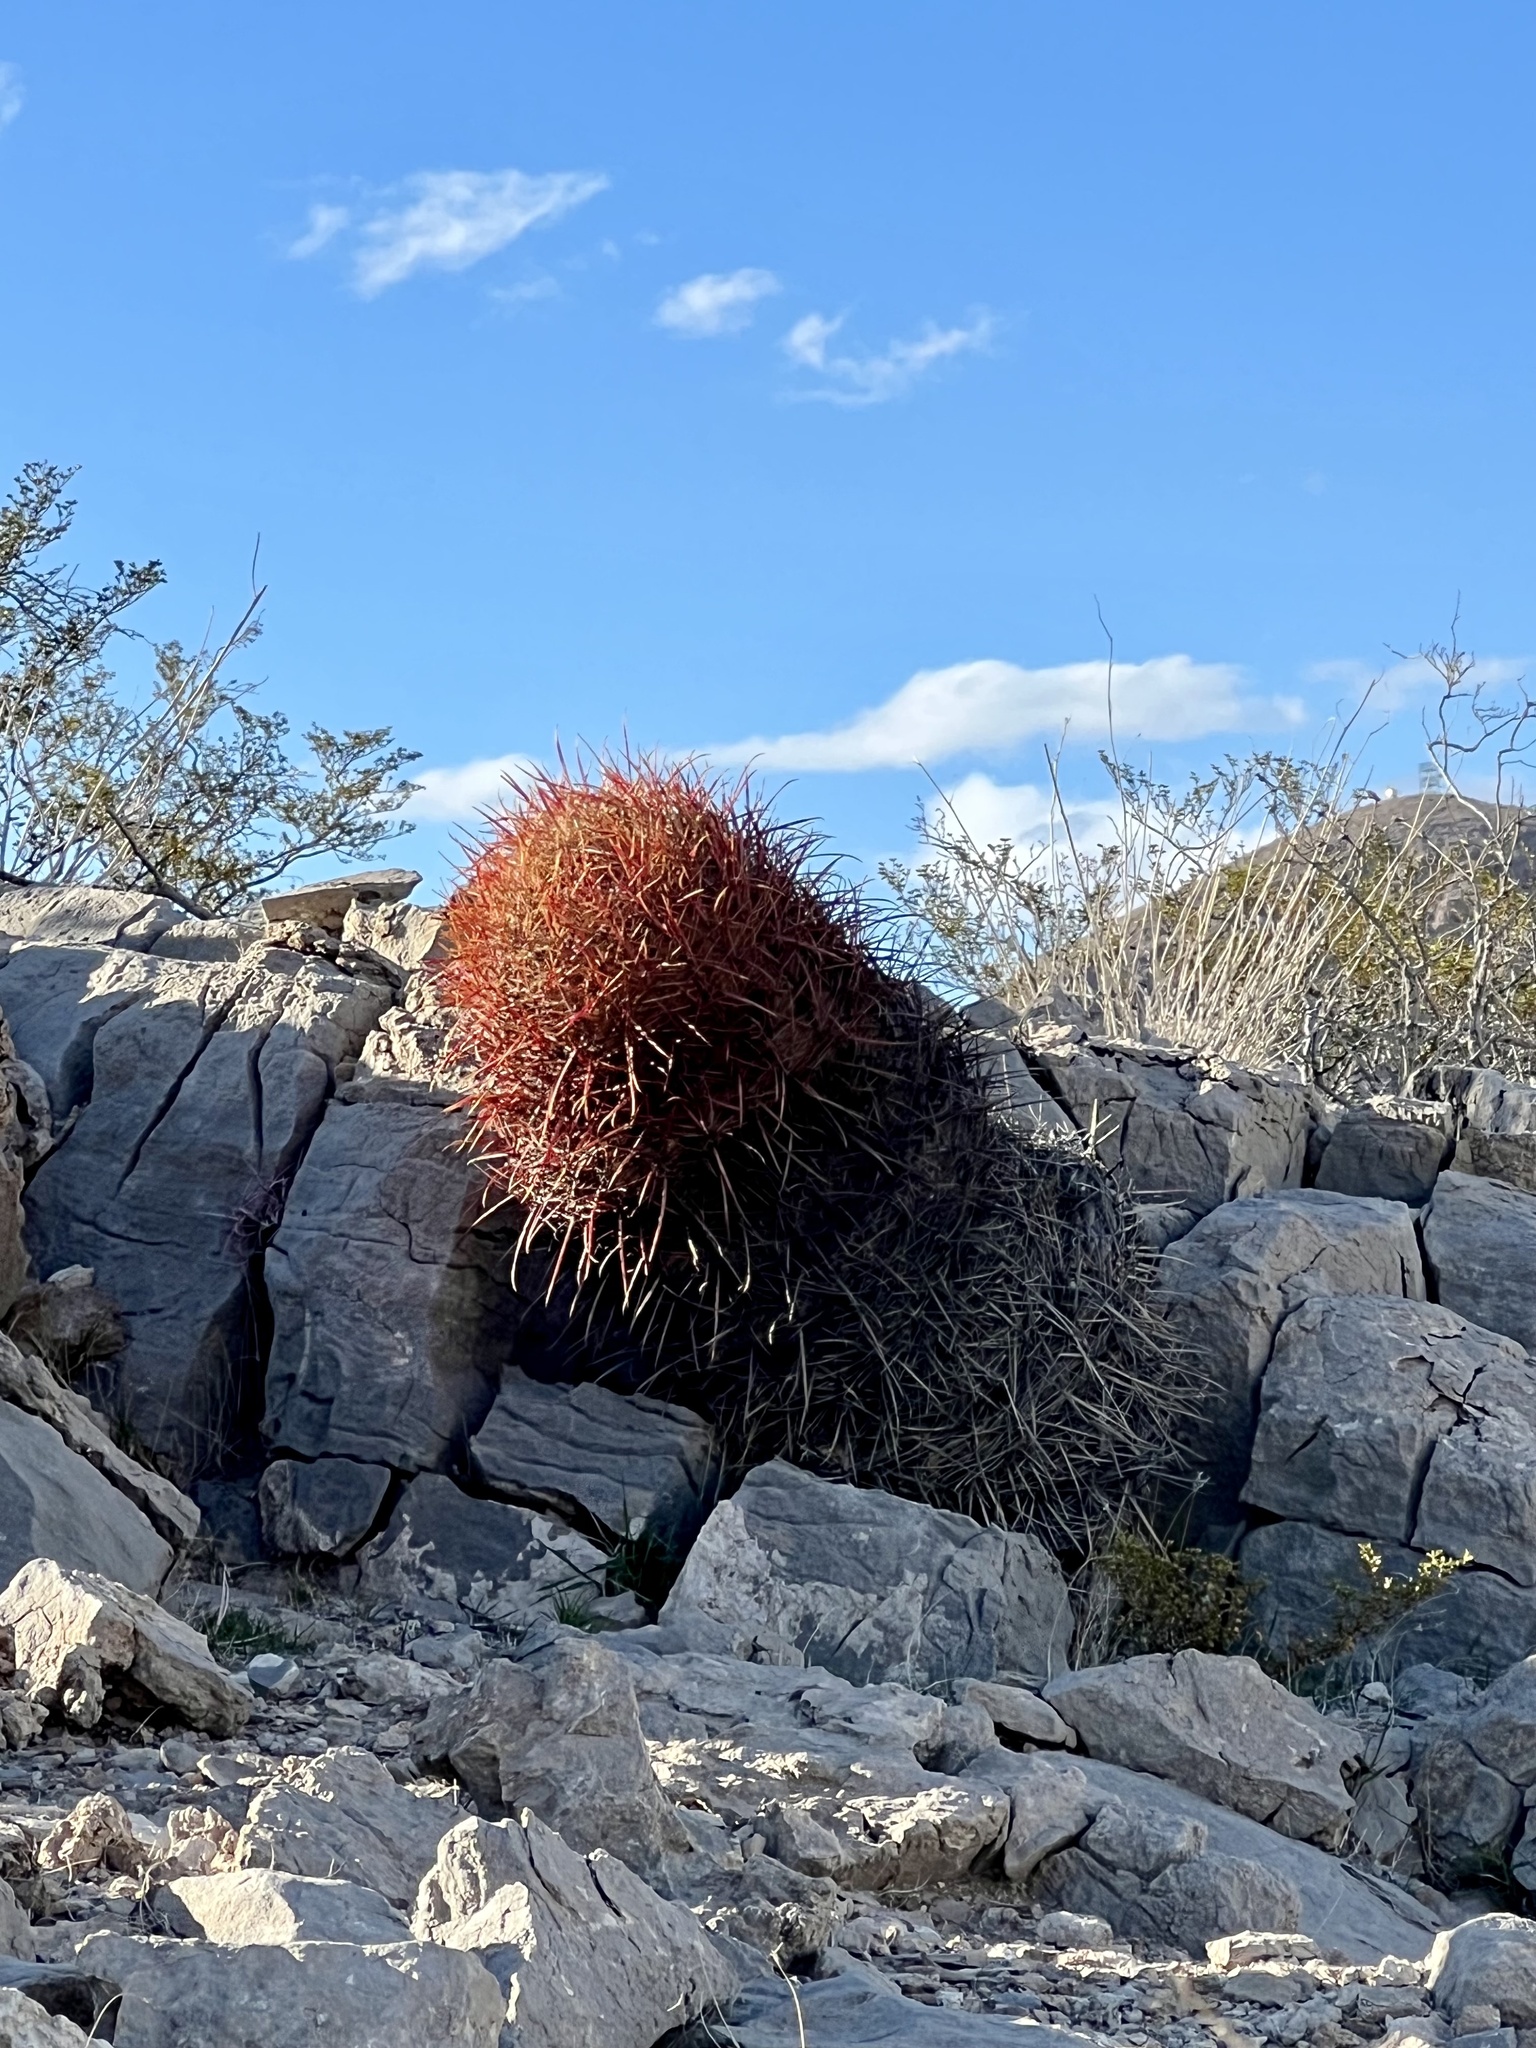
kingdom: Plantae
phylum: Tracheophyta
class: Magnoliopsida
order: Caryophyllales
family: Cactaceae
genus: Ferocactus
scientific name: Ferocactus cylindraceus
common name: California barrel cactus
